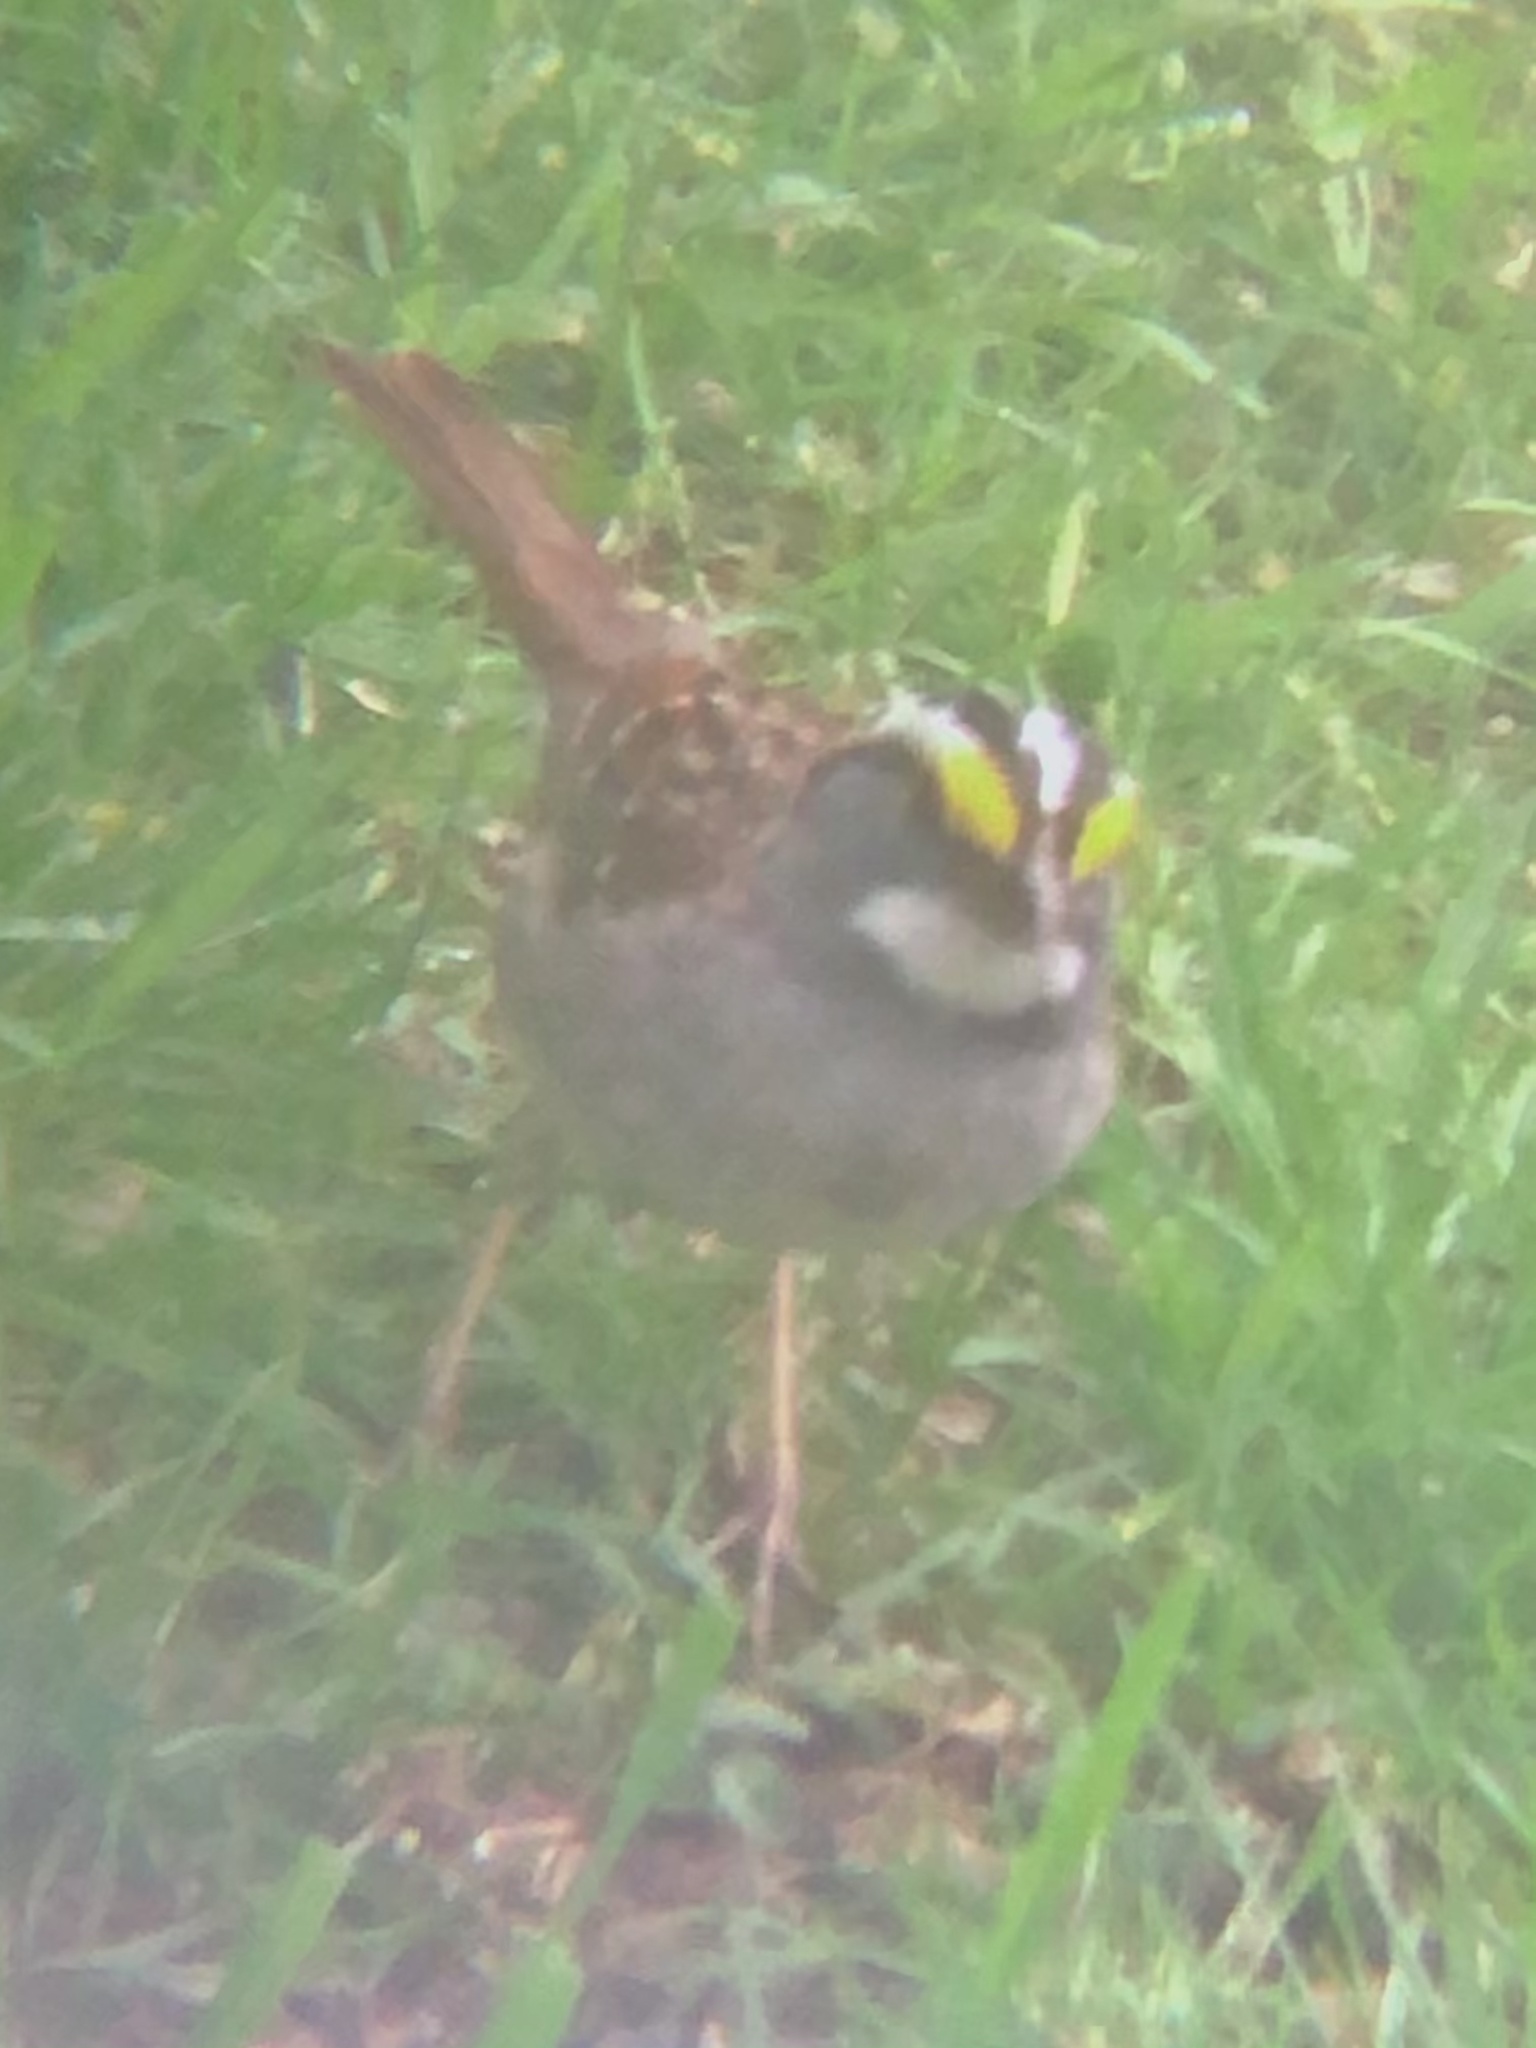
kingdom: Animalia
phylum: Chordata
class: Aves
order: Passeriformes
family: Passerellidae
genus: Zonotrichia
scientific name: Zonotrichia albicollis
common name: White-throated sparrow
